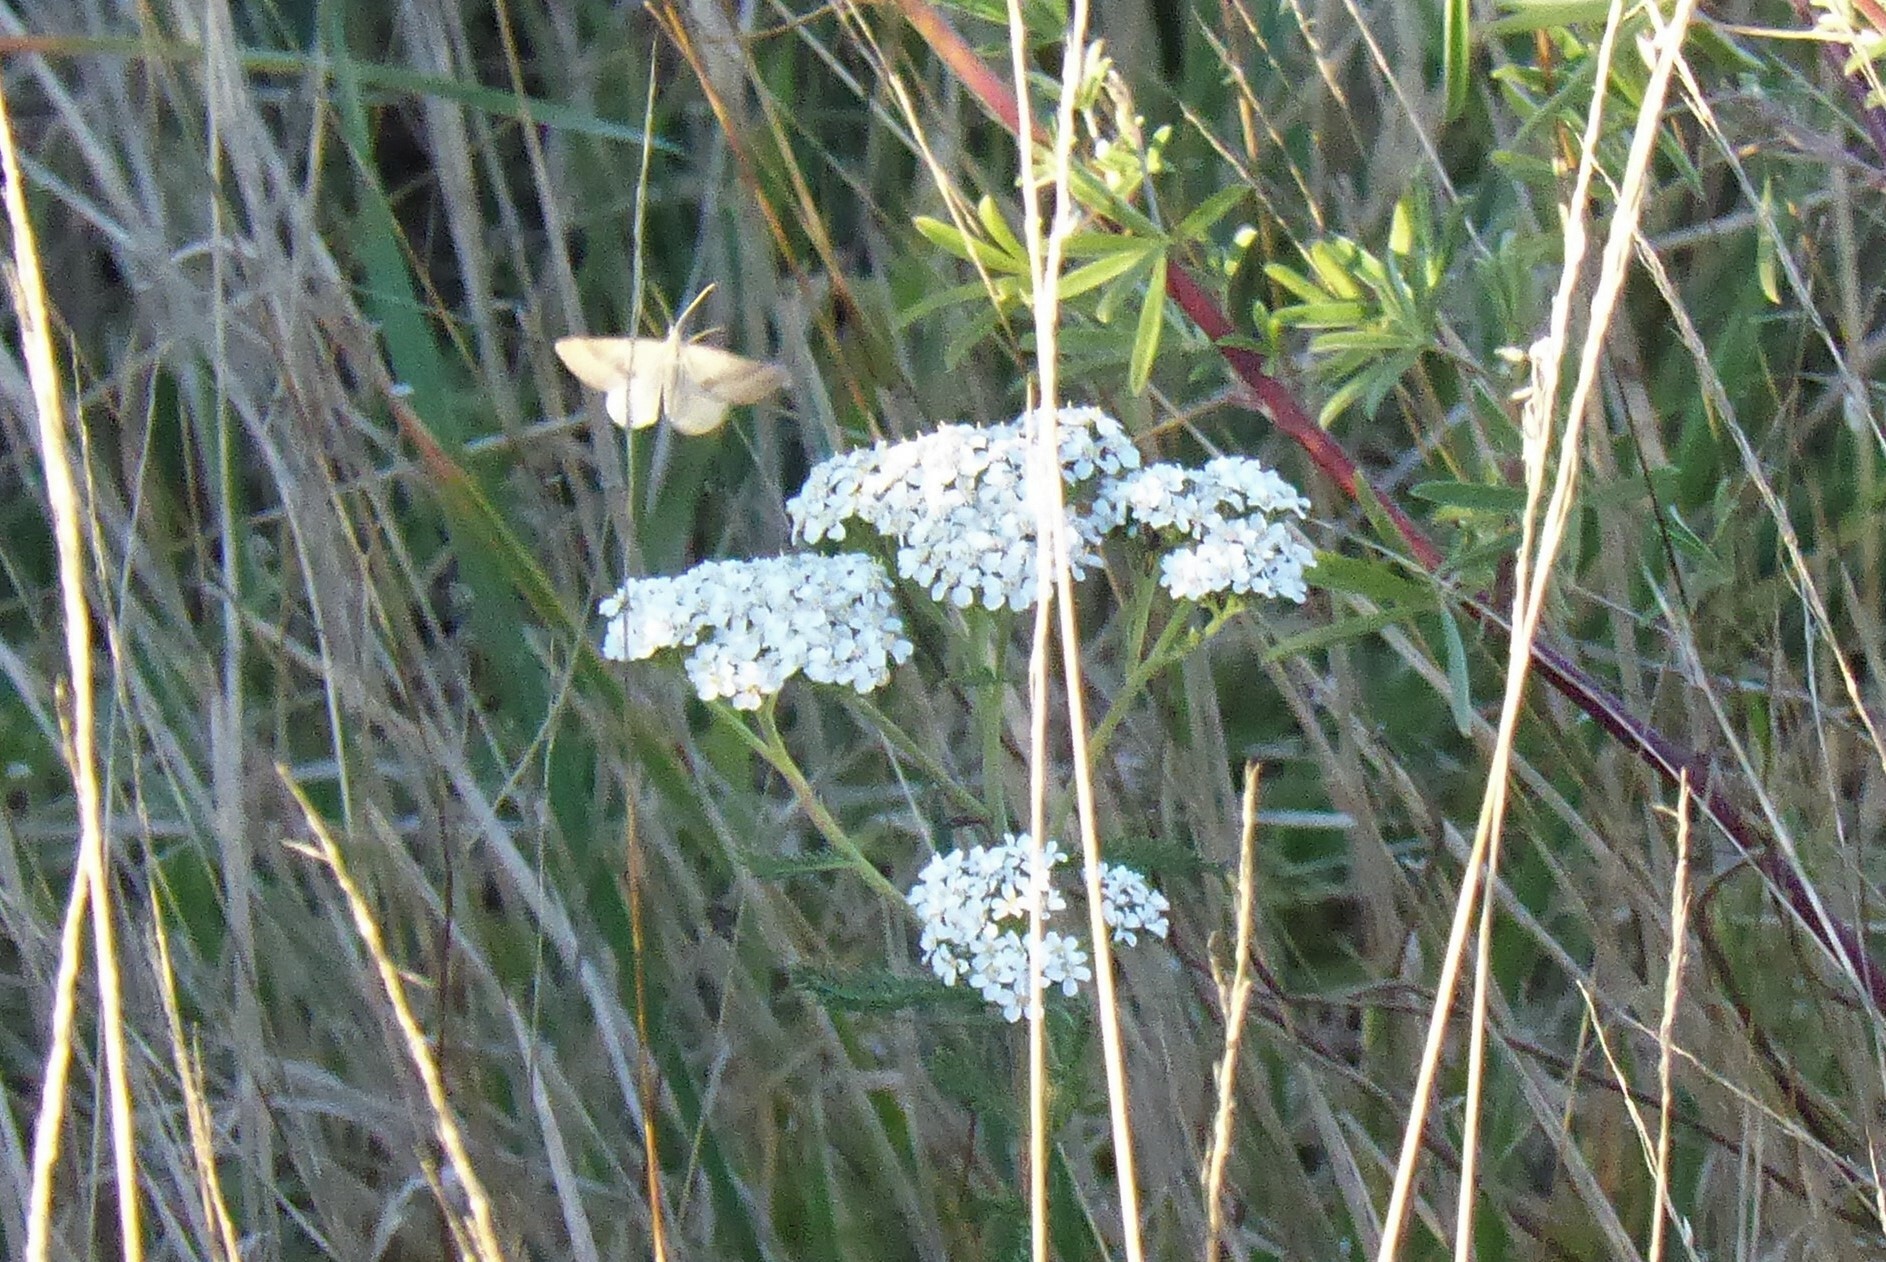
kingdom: Animalia
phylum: Arthropoda
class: Insecta
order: Lepidoptera
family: Geometridae
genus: Anachloris
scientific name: Anachloris subochraria
